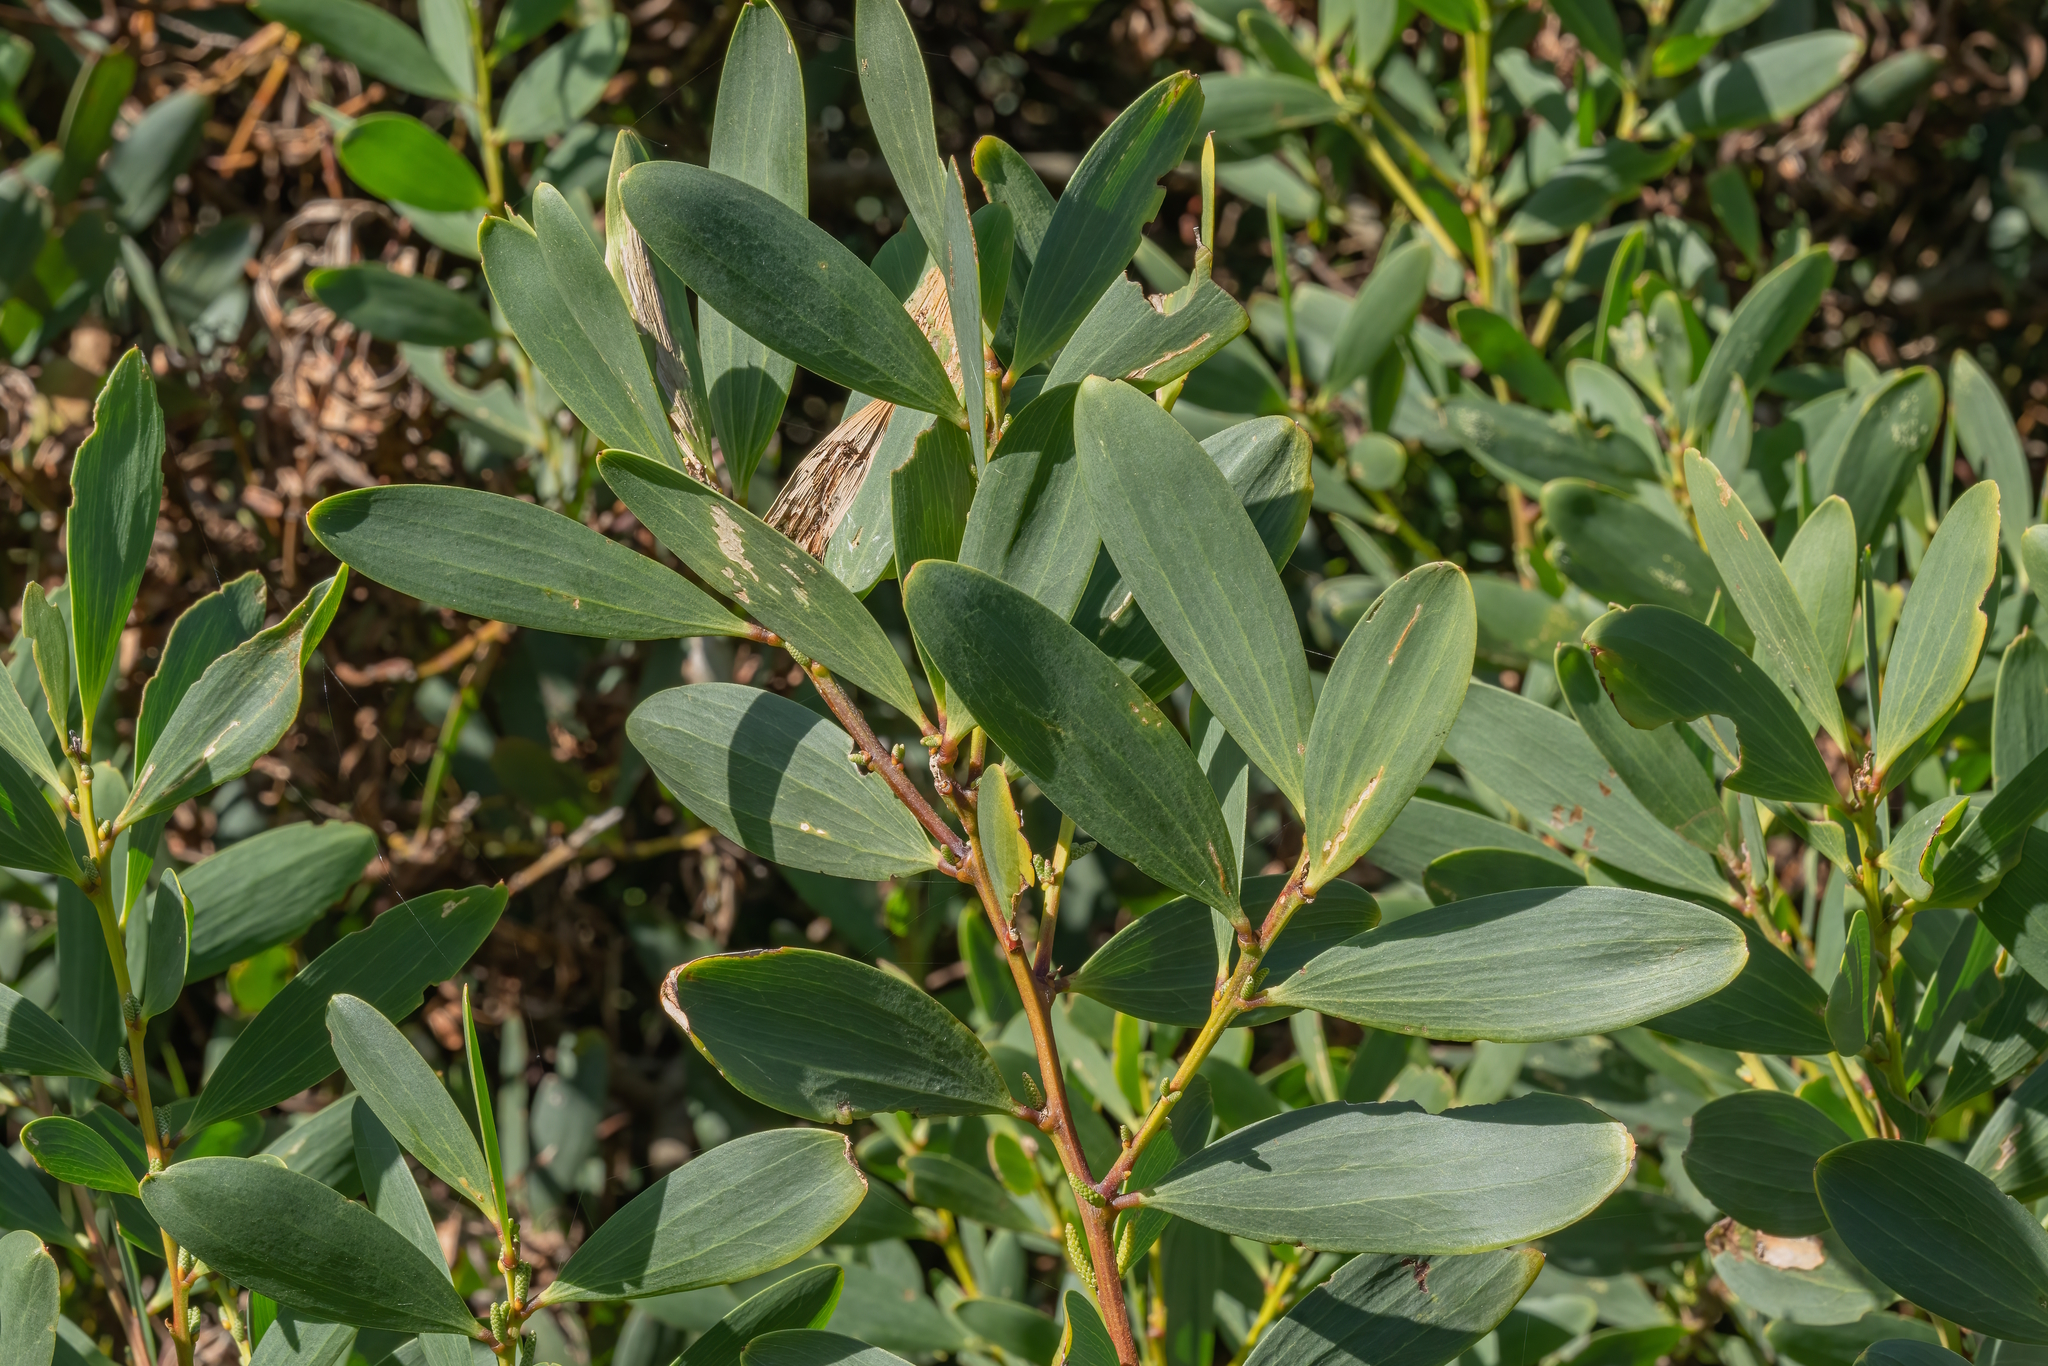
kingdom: Plantae
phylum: Tracheophyta
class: Magnoliopsida
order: Fabales
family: Fabaceae
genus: Acacia
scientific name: Acacia longifolia
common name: Sydney golden wattle
